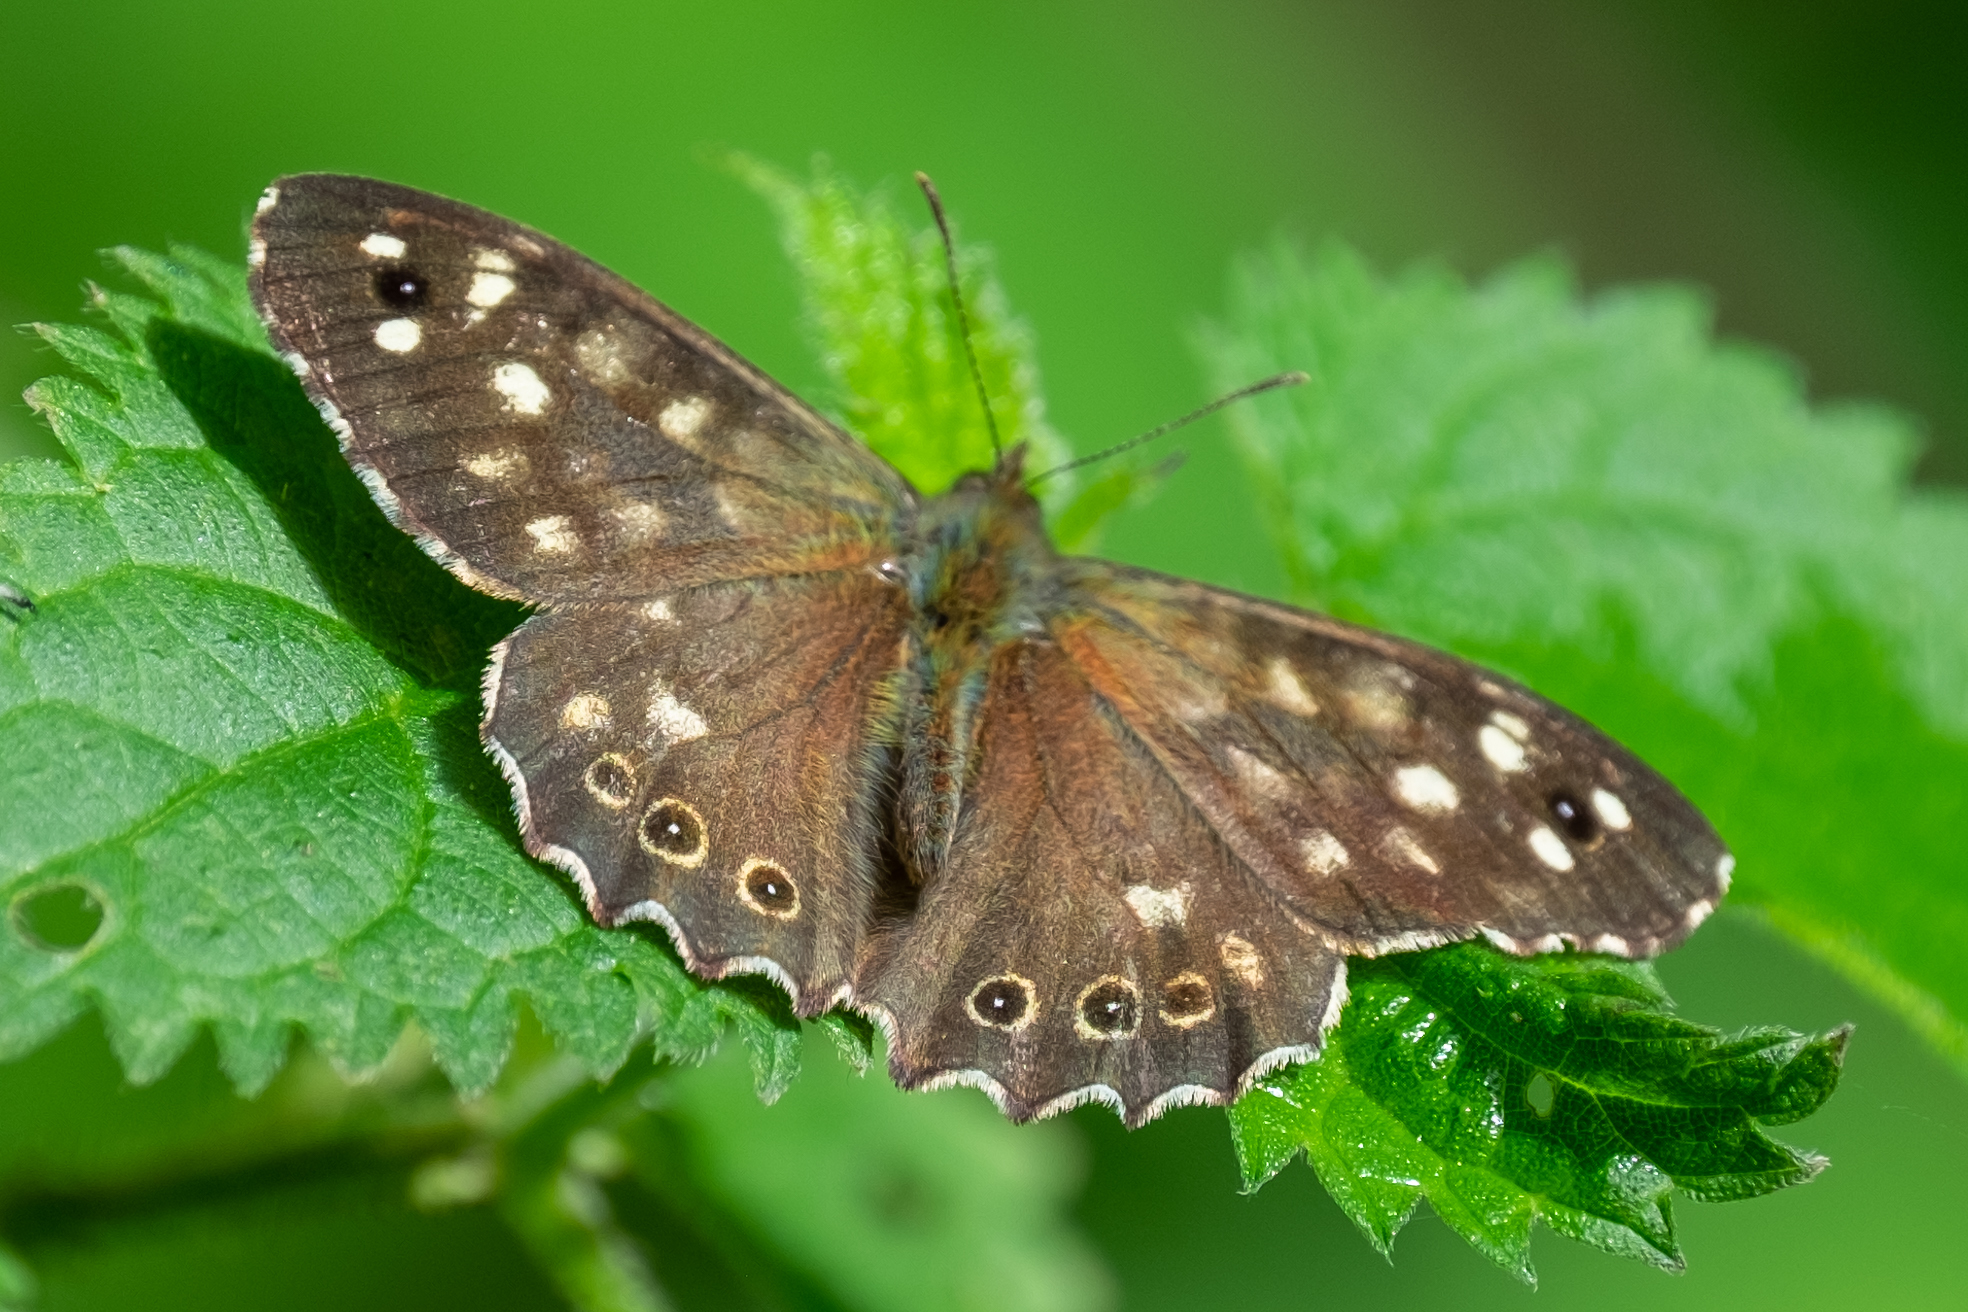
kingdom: Animalia
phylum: Arthropoda
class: Insecta
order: Lepidoptera
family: Nymphalidae
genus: Pararge
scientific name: Pararge aegeria
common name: Speckled wood
